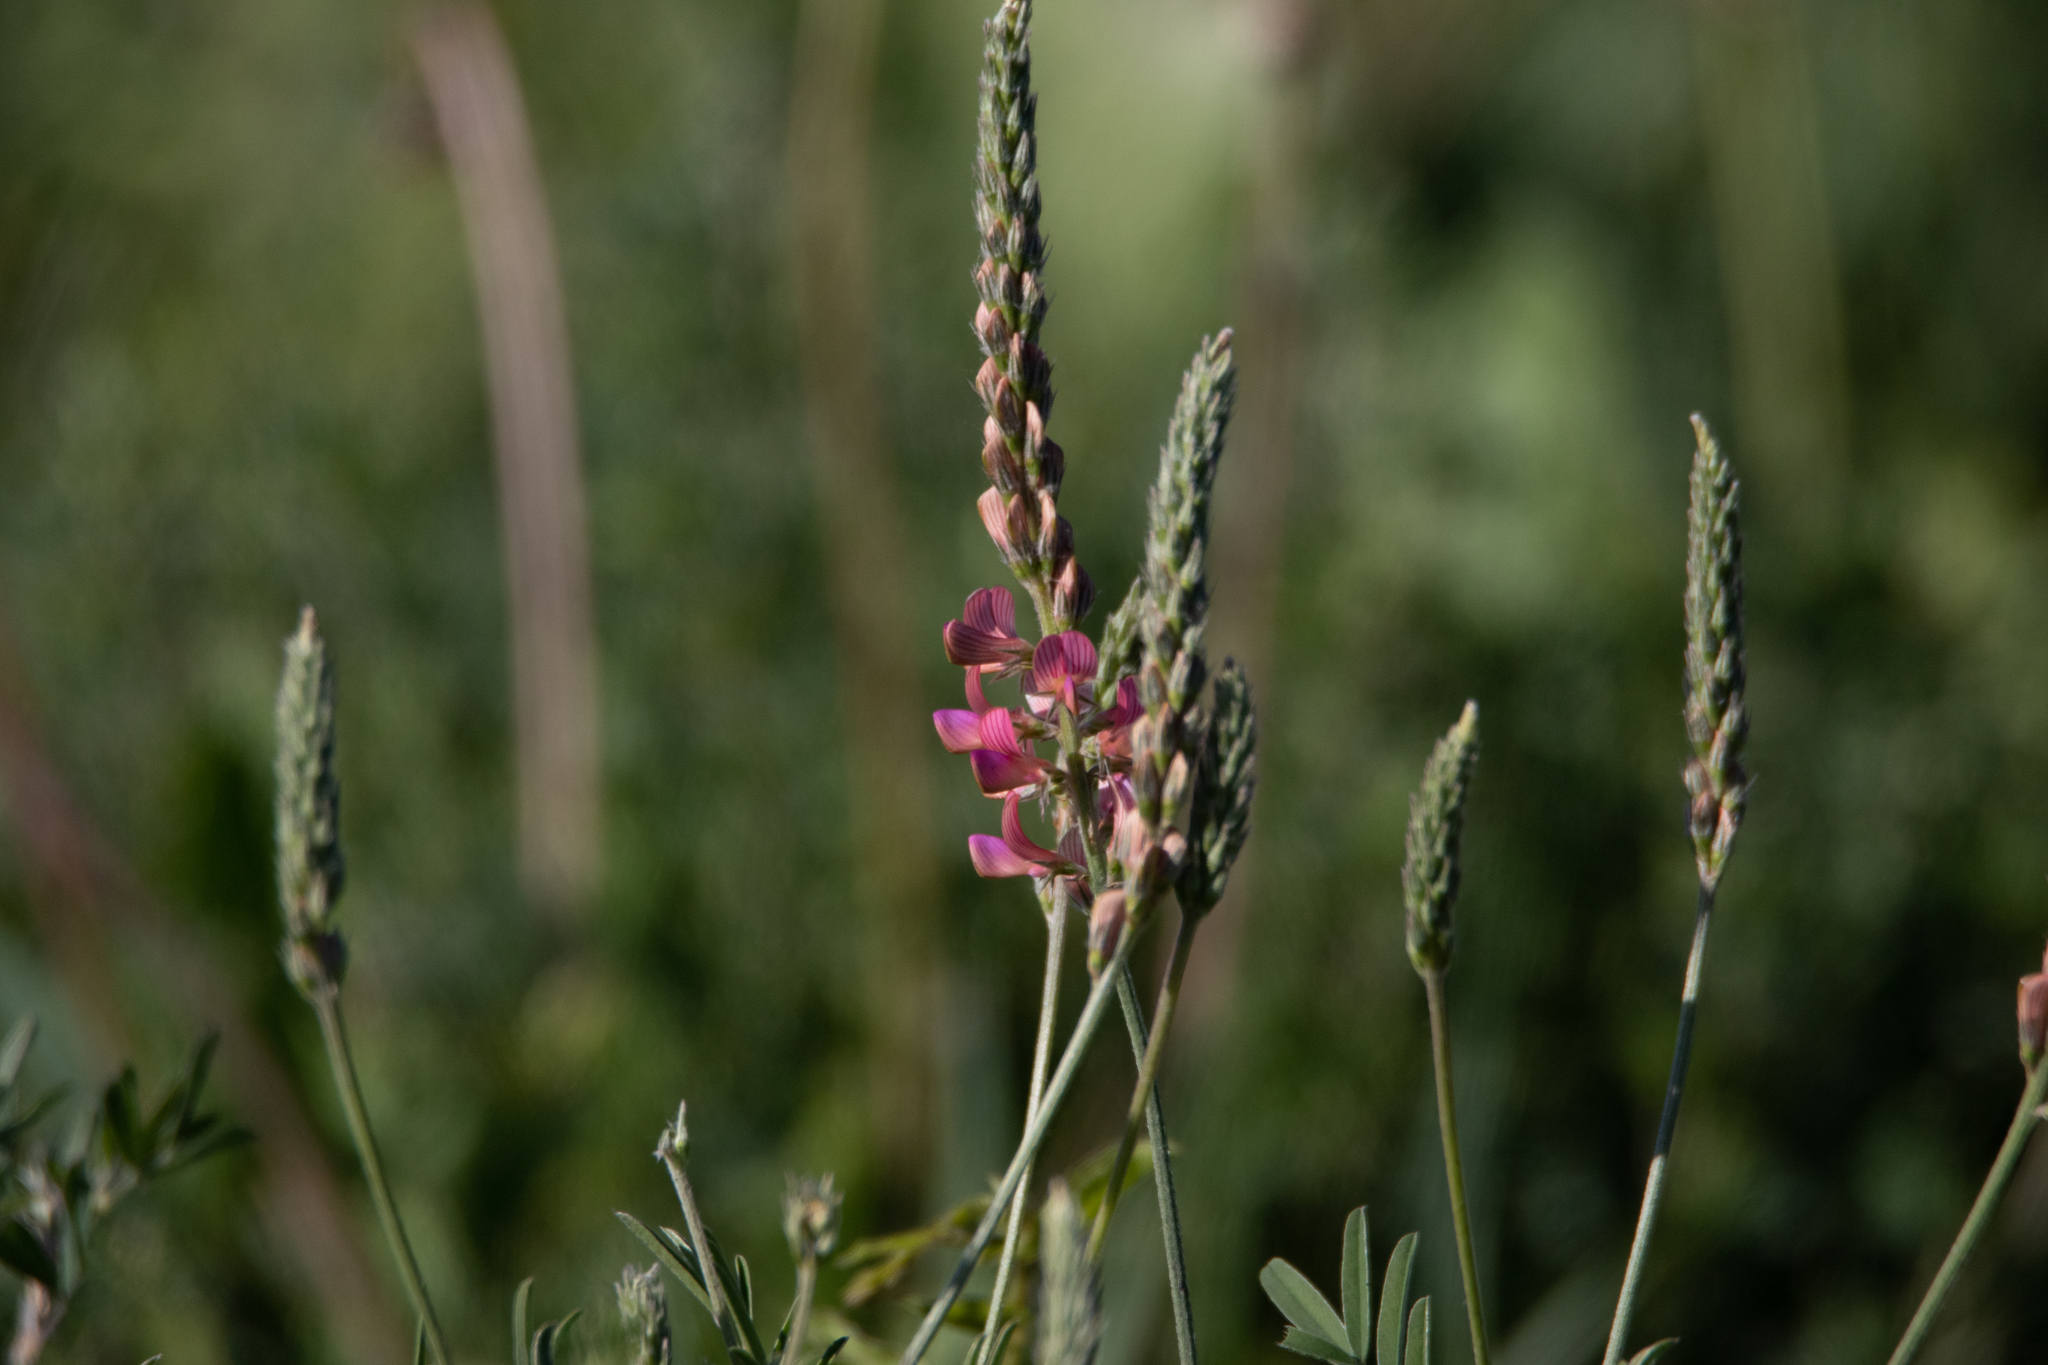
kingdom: Plantae
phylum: Tracheophyta
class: Magnoliopsida
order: Fabales
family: Fabaceae
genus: Onobrychis
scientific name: Onobrychis arenaria
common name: Sand esparcet
